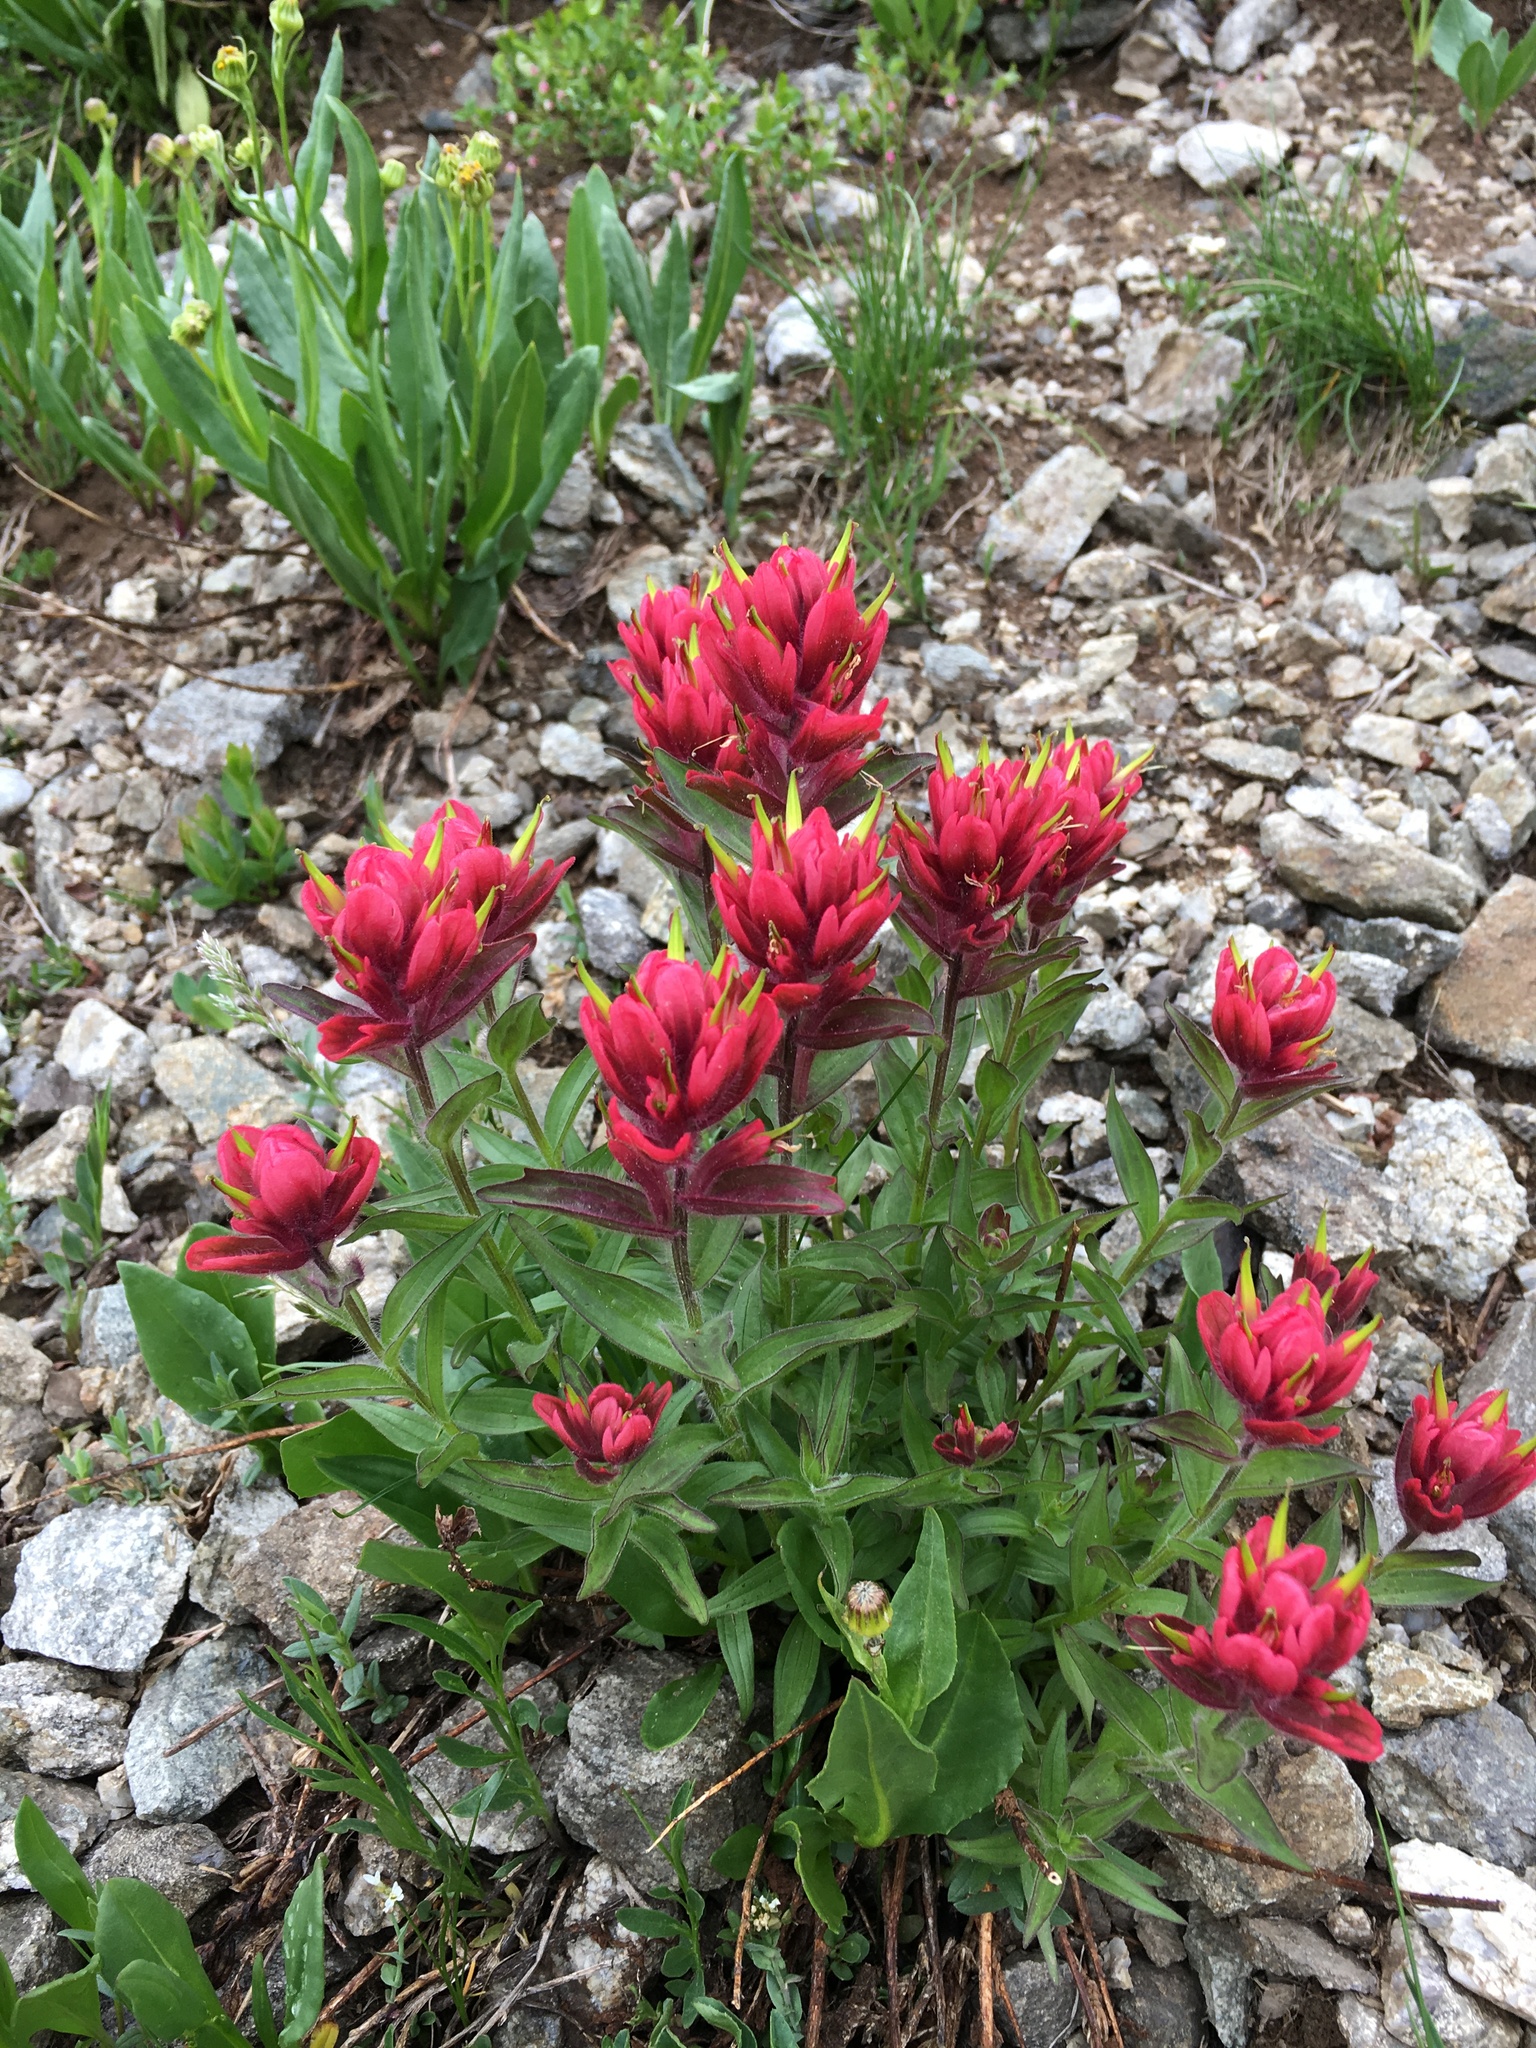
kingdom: Plantae
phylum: Tracheophyta
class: Magnoliopsida
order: Lamiales
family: Orobanchaceae
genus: Castilleja
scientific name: Castilleja rhexifolia
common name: Rocky mountain paintbrush
